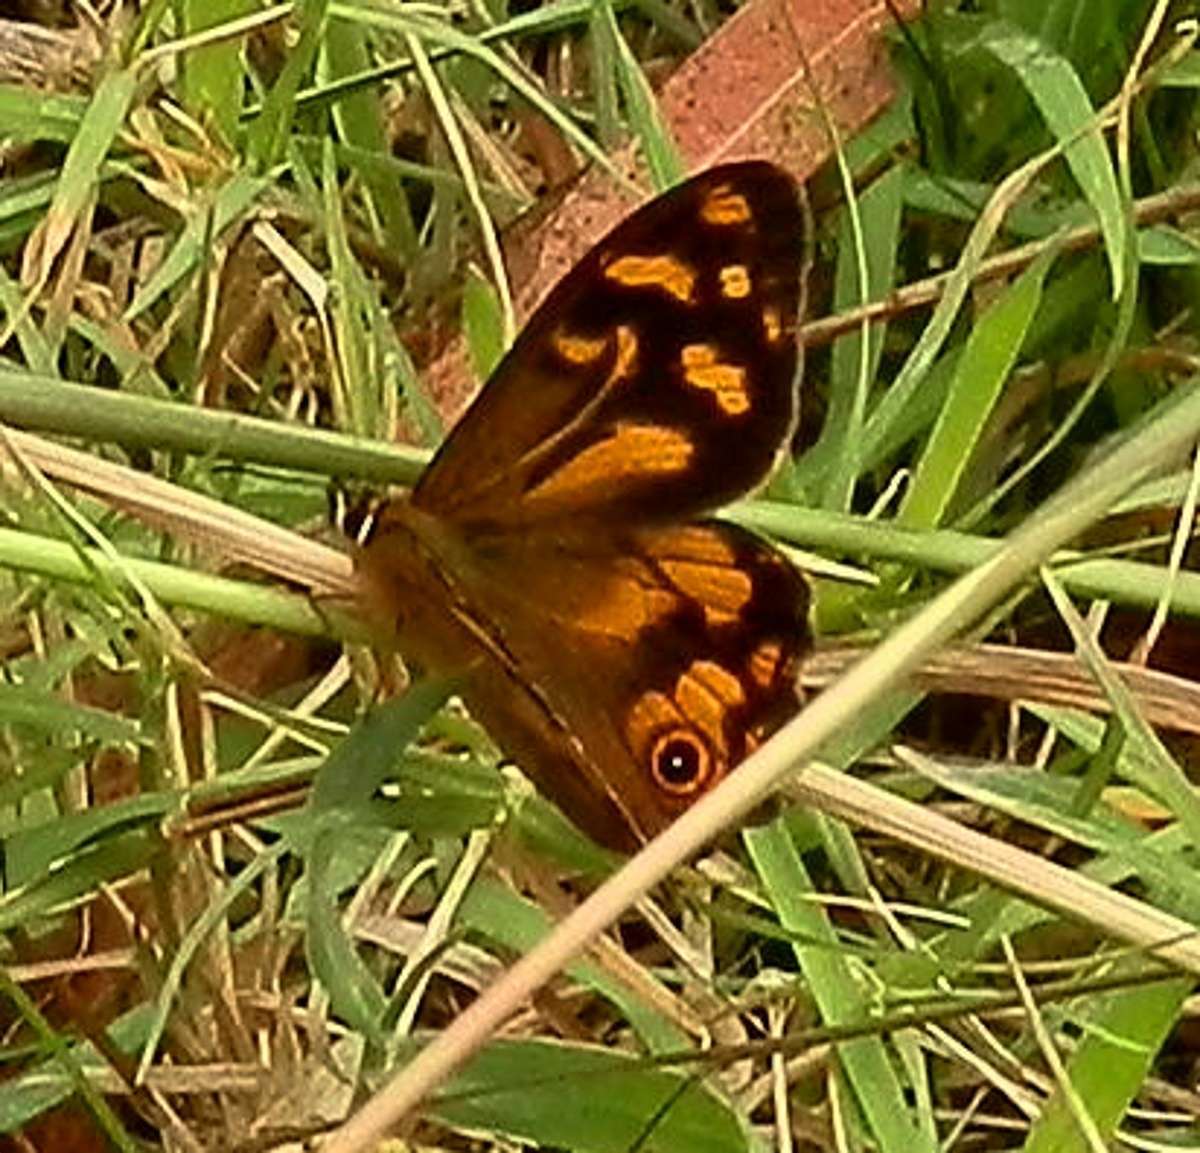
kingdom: Animalia
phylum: Arthropoda
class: Insecta
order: Lepidoptera
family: Nymphalidae
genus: Heteronympha
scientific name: Heteronympha banksii
